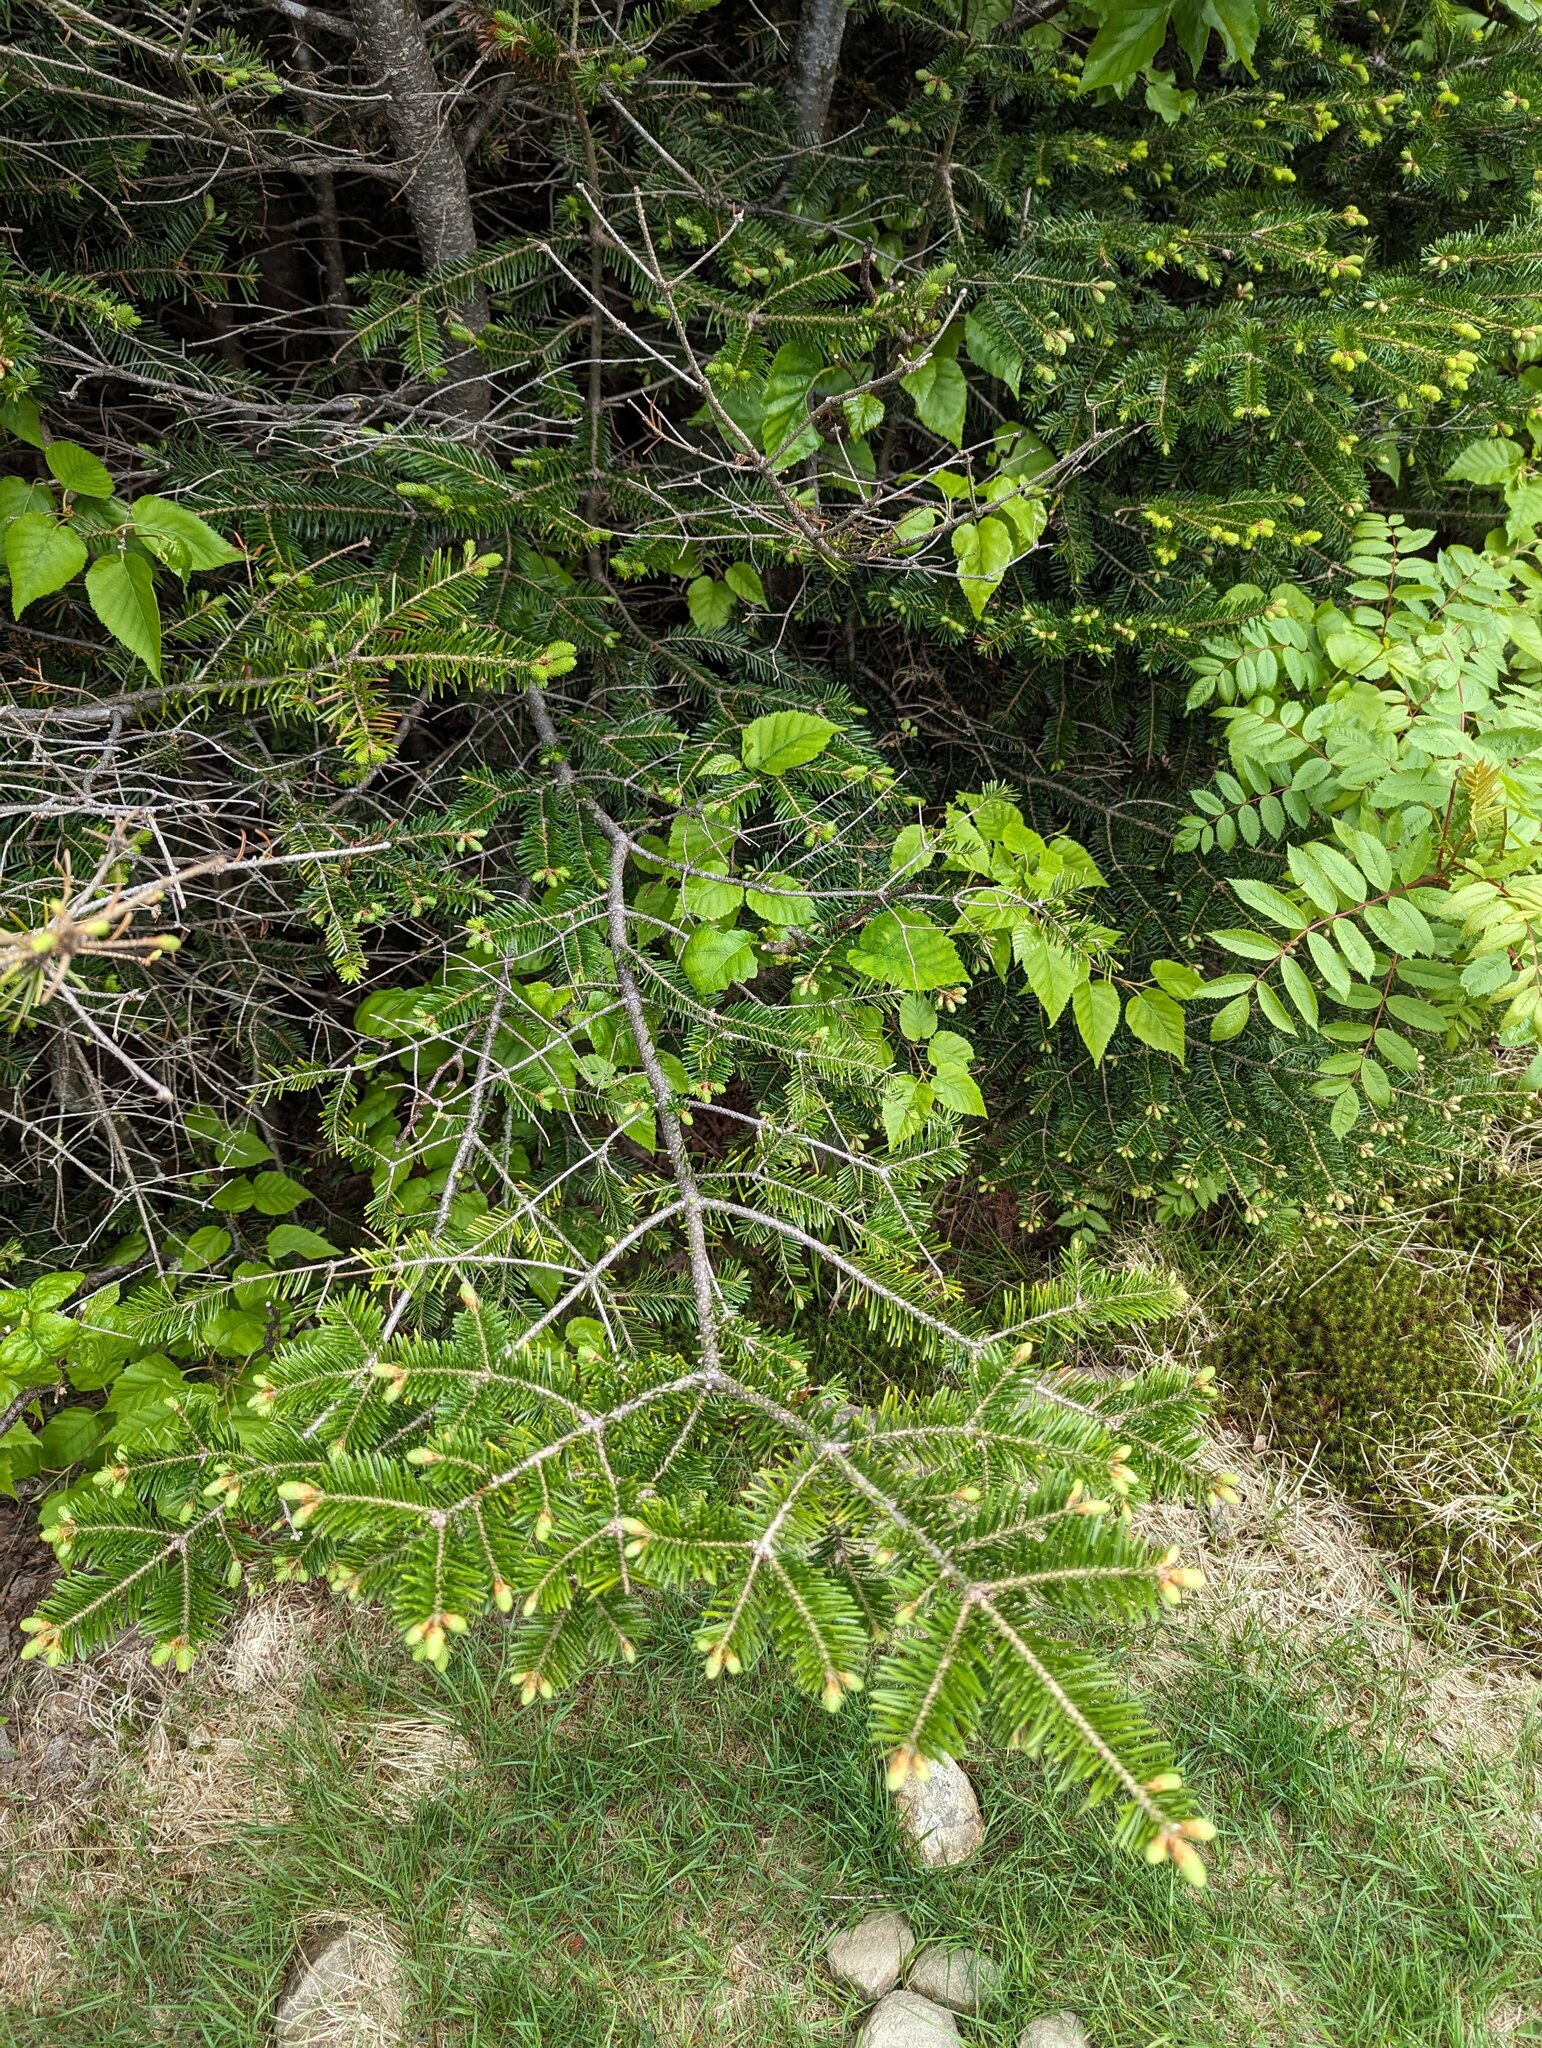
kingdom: Plantae
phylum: Tracheophyta
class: Pinopsida
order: Pinales
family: Pinaceae
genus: Abies
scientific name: Abies balsamea
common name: Balsam fir
